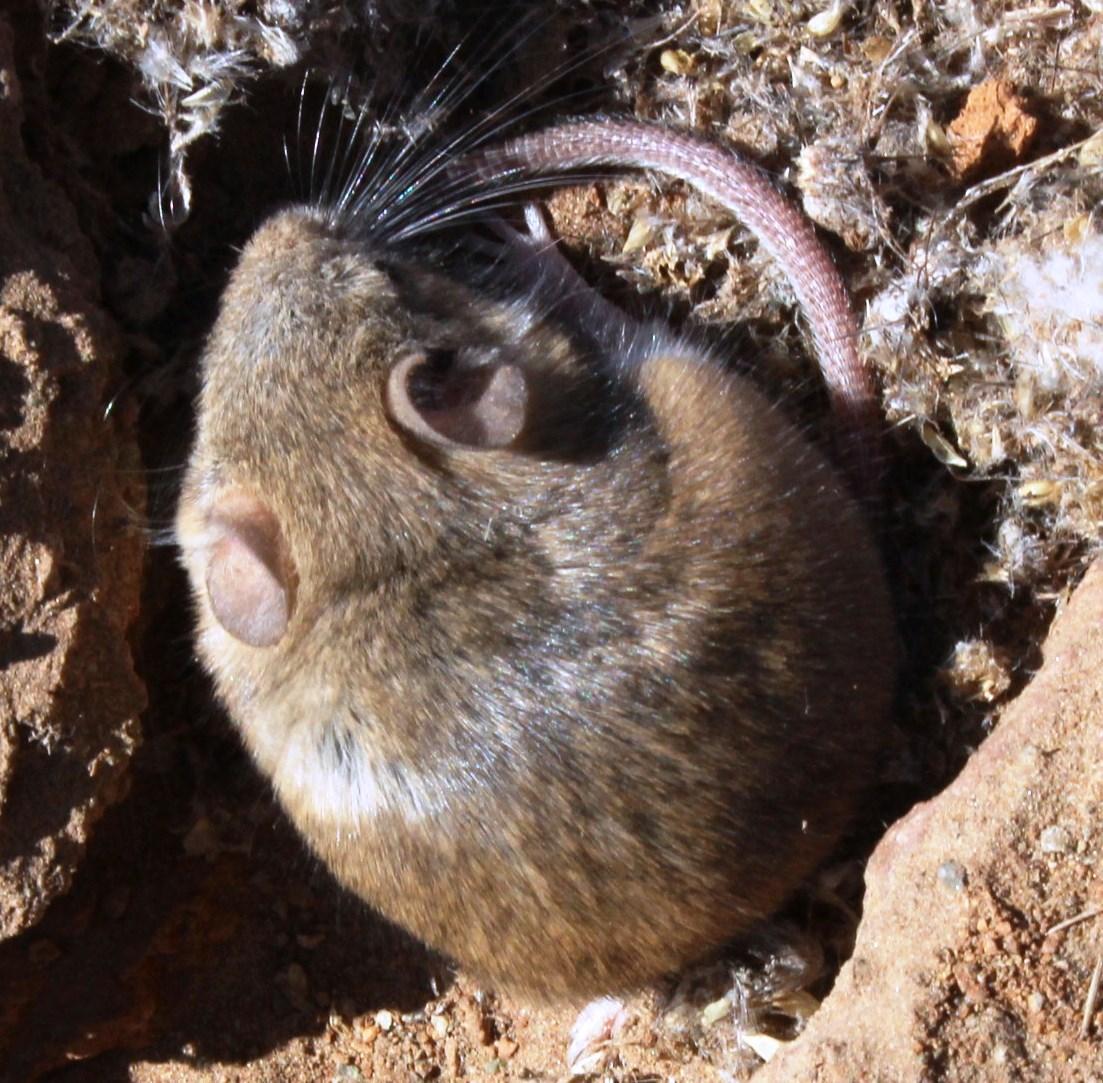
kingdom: Animalia
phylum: Chordata
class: Mammalia
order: Rodentia
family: Muridae
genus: Micaelamys
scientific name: Micaelamys namaquensis
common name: Namaqua micaelamys
